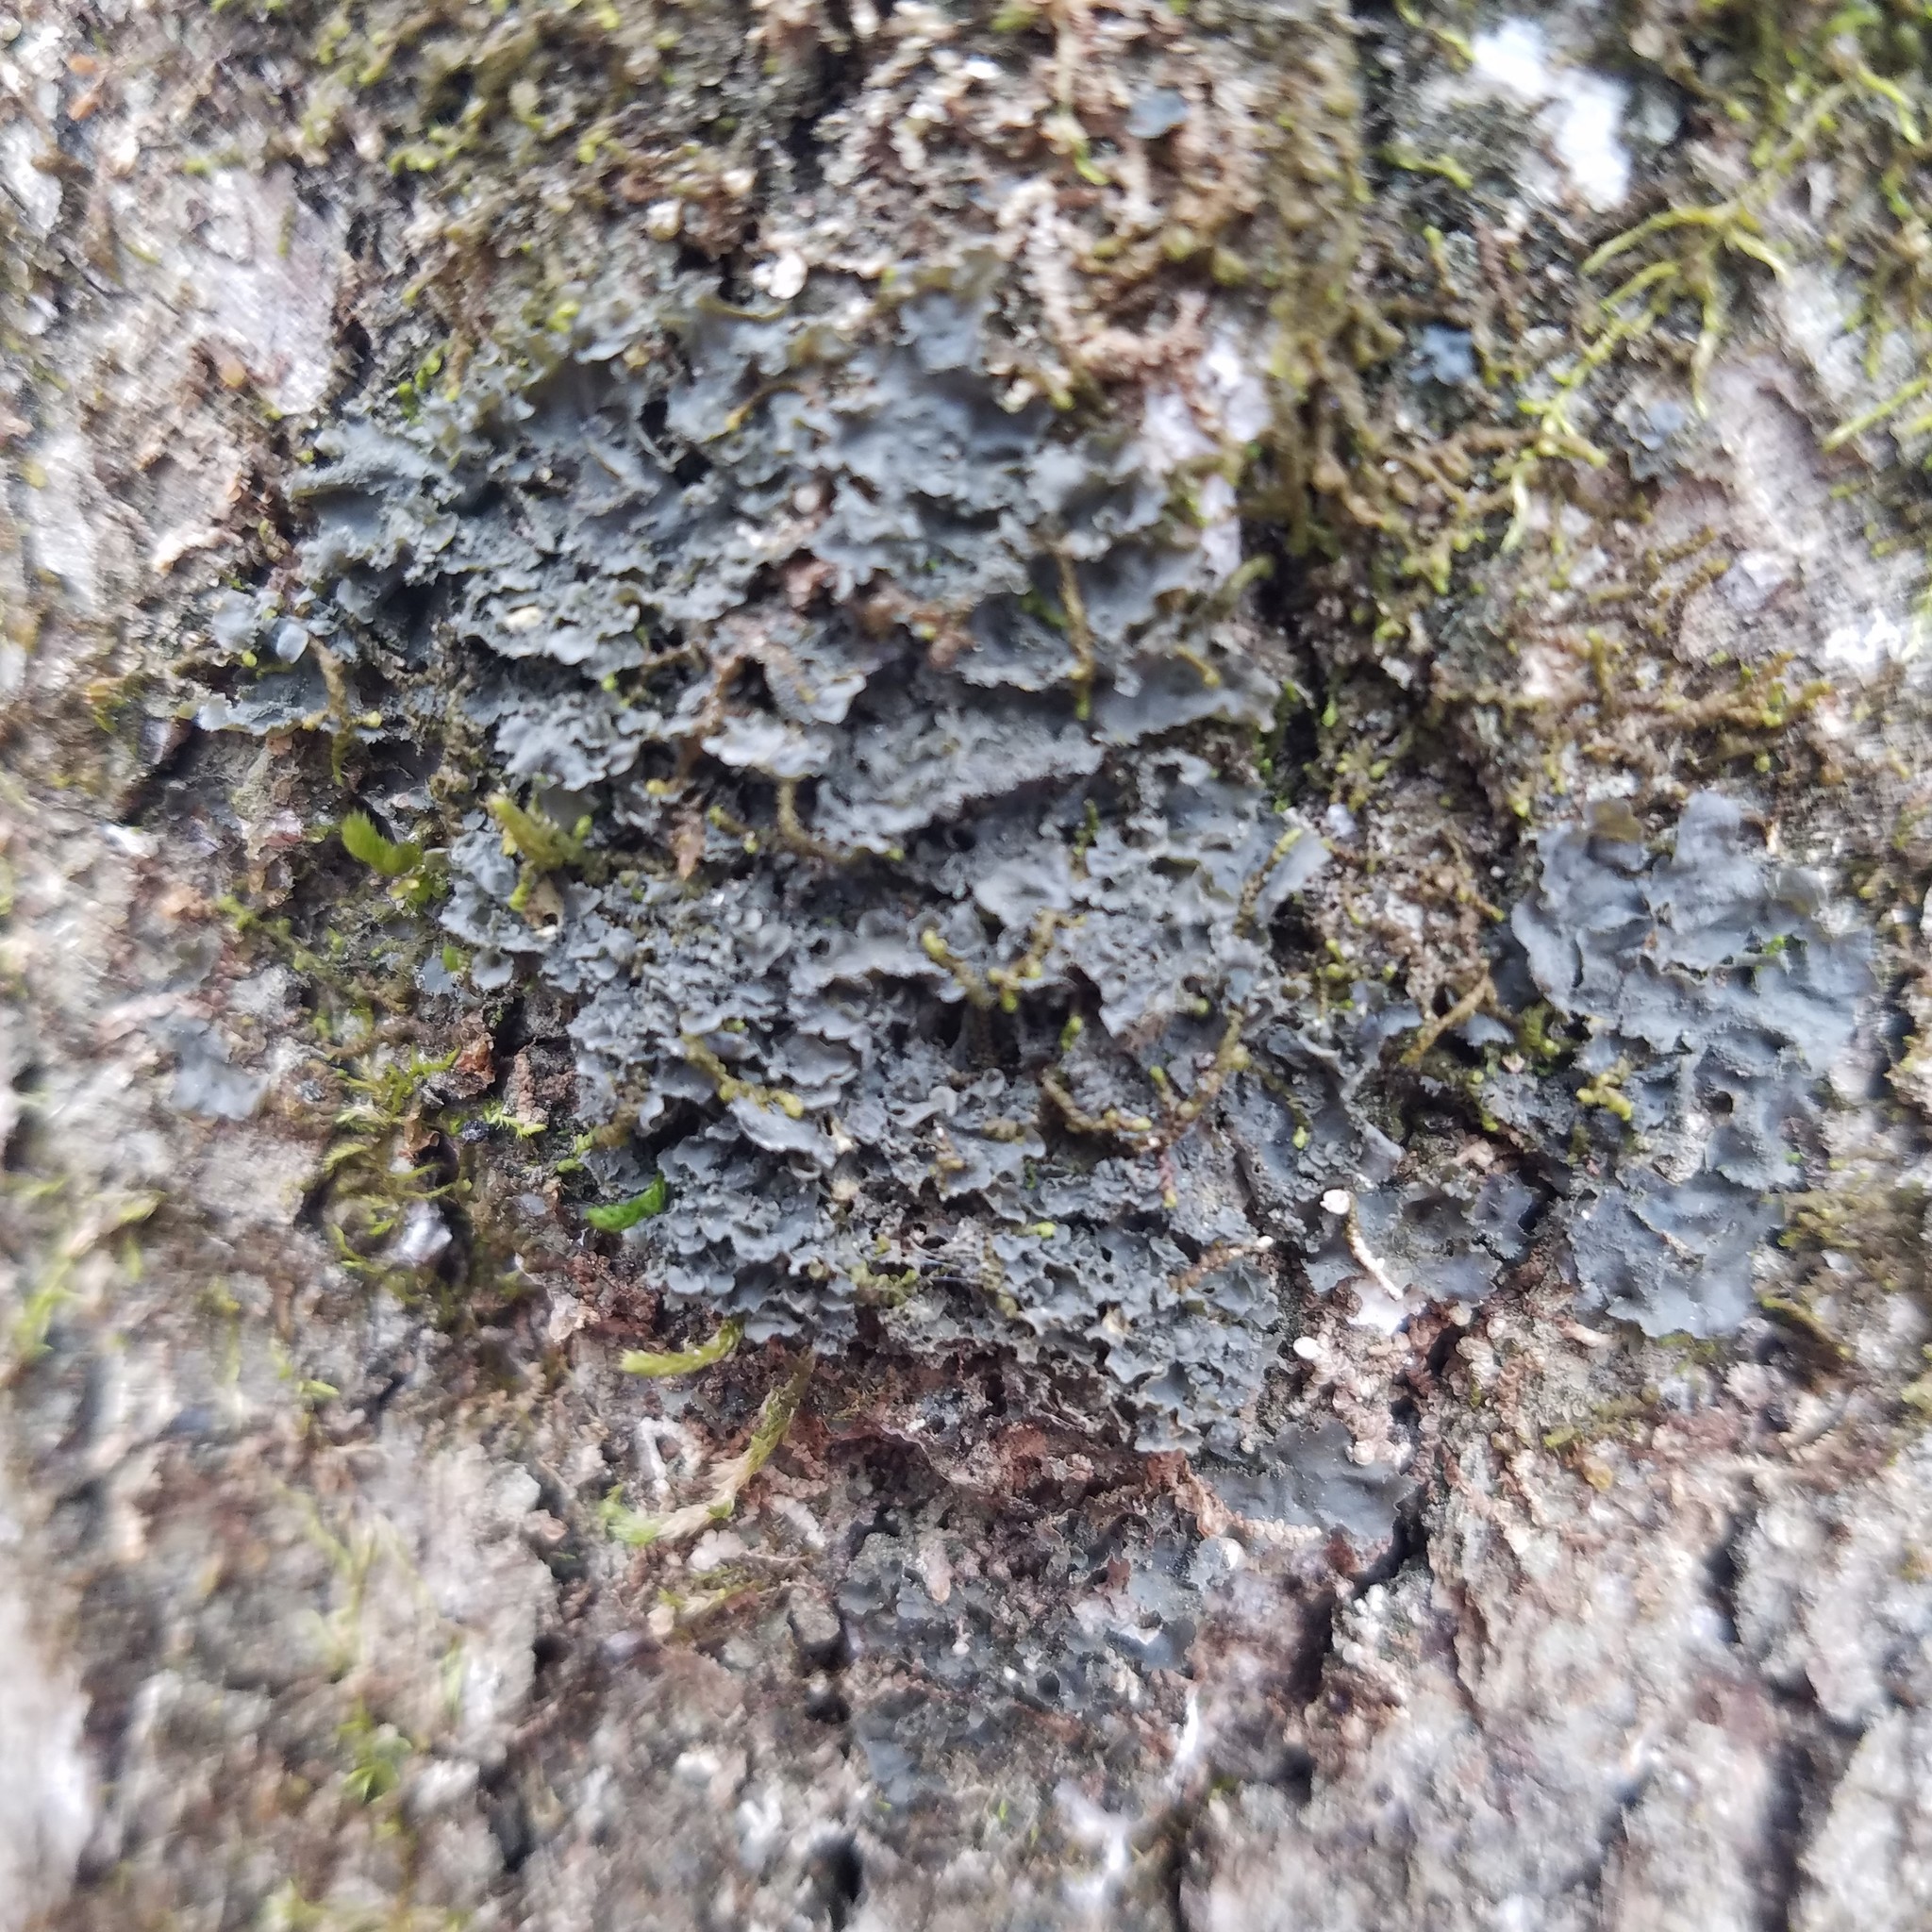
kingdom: Fungi
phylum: Ascomycota
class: Lecanoromycetes
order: Peltigerales
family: Collemataceae
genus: Leptogium
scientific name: Leptogium cyanescens
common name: Blue jellyskin
